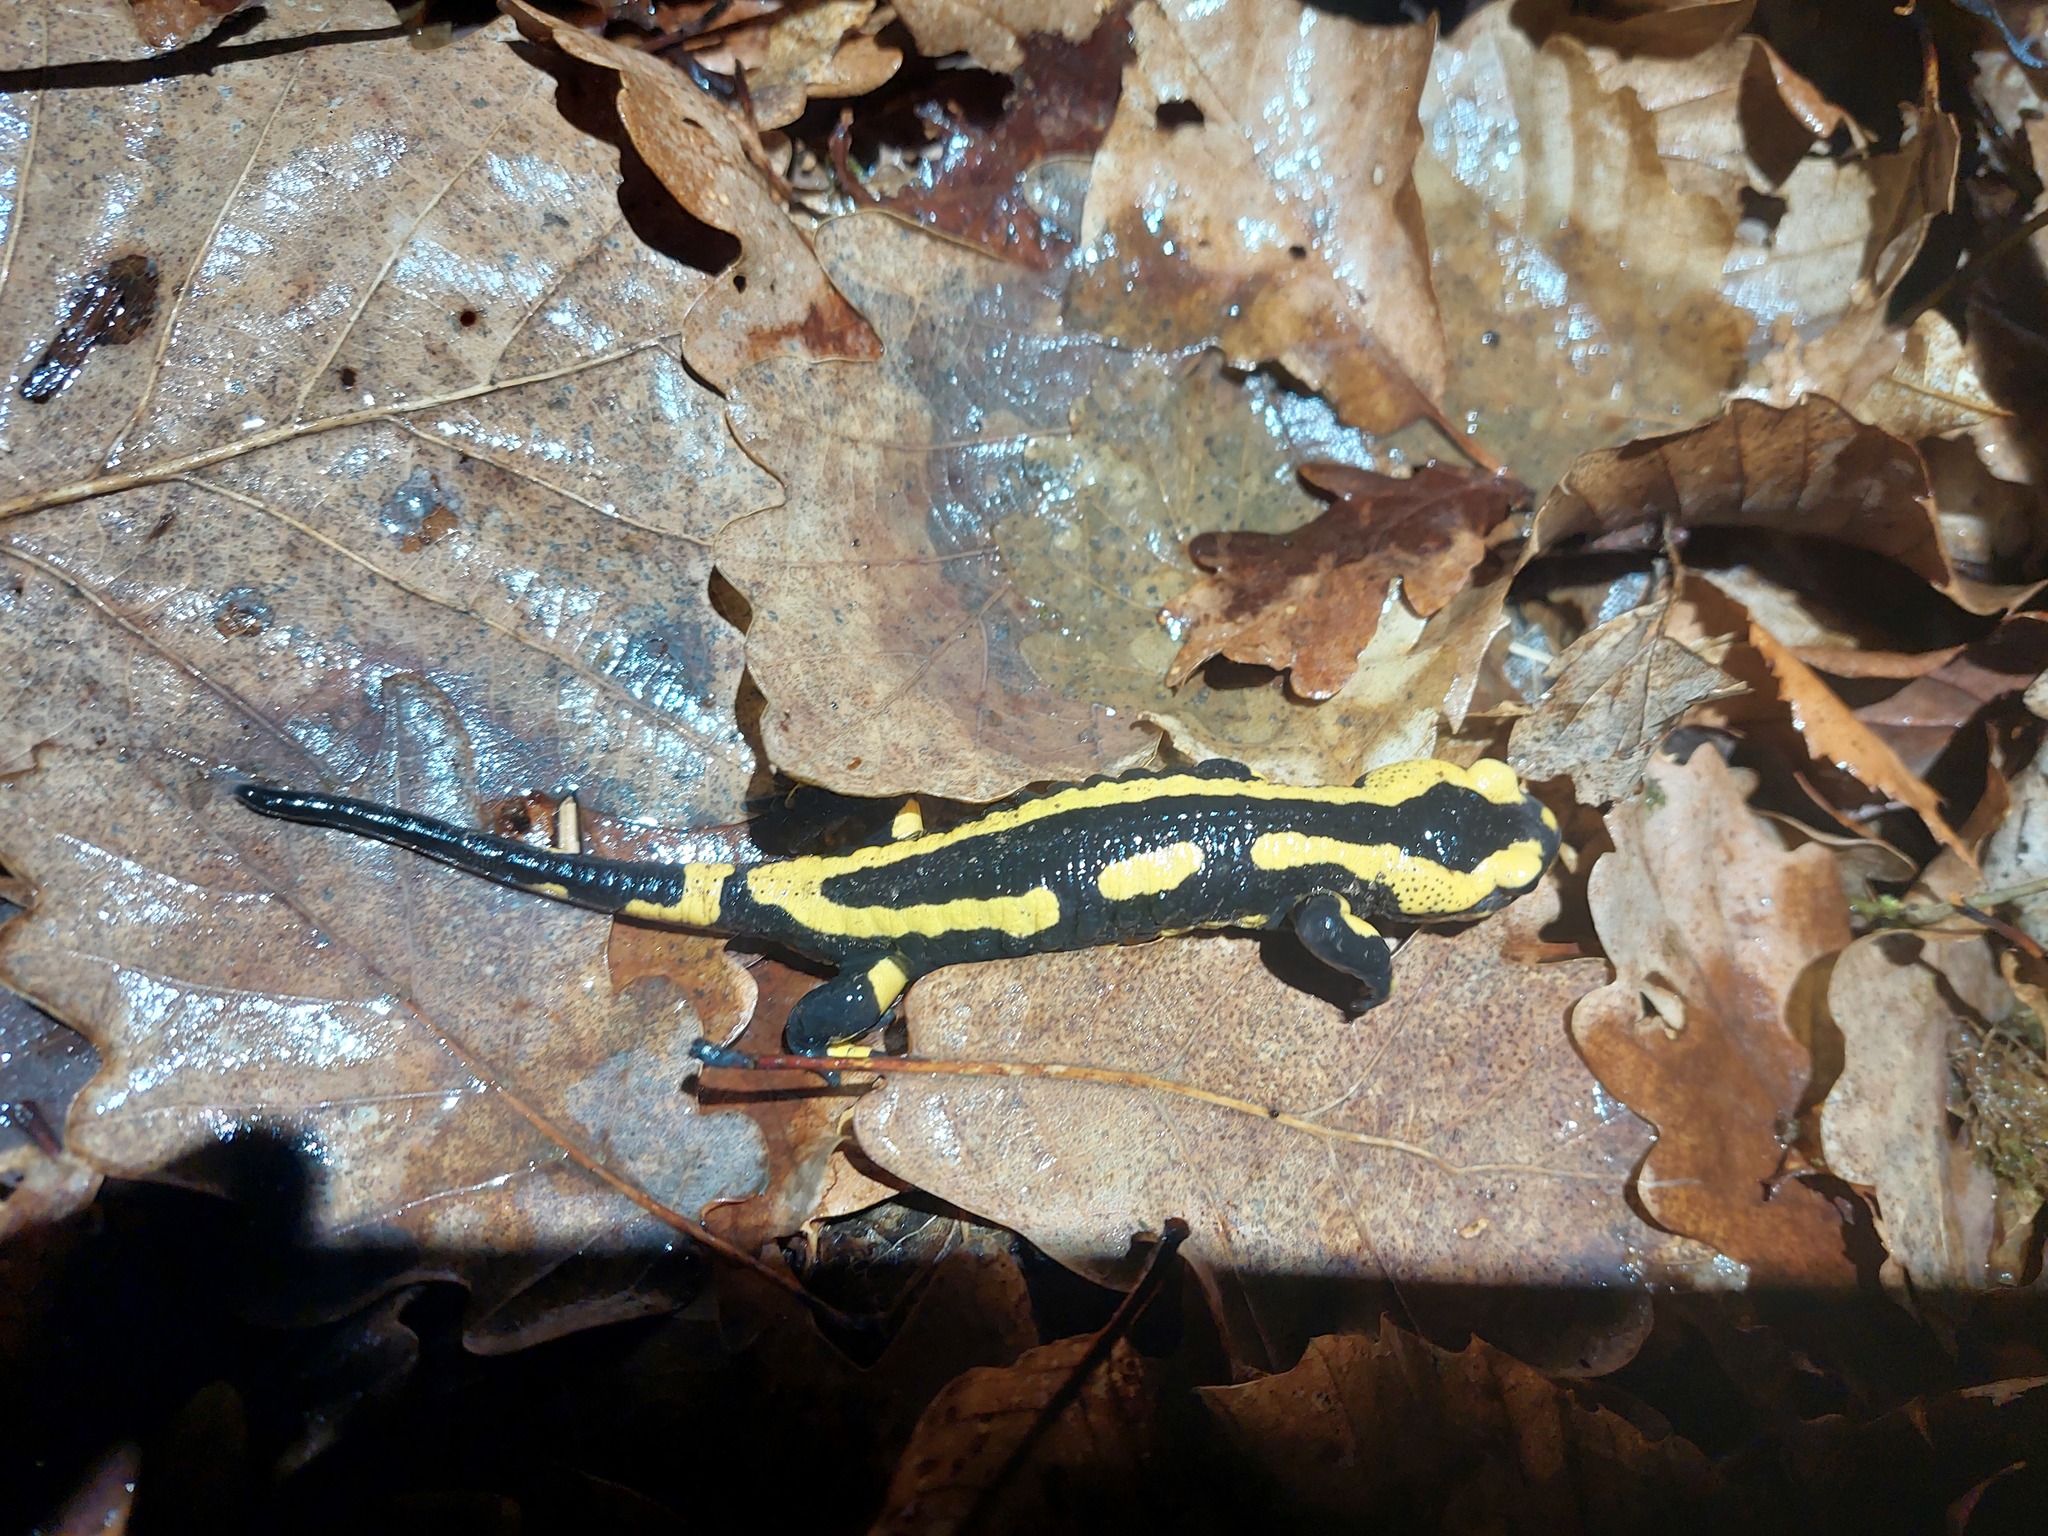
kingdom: Animalia
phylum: Chordata
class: Amphibia
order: Caudata
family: Salamandridae
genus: Salamandra
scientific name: Salamandra salamandra
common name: Fire salamander
